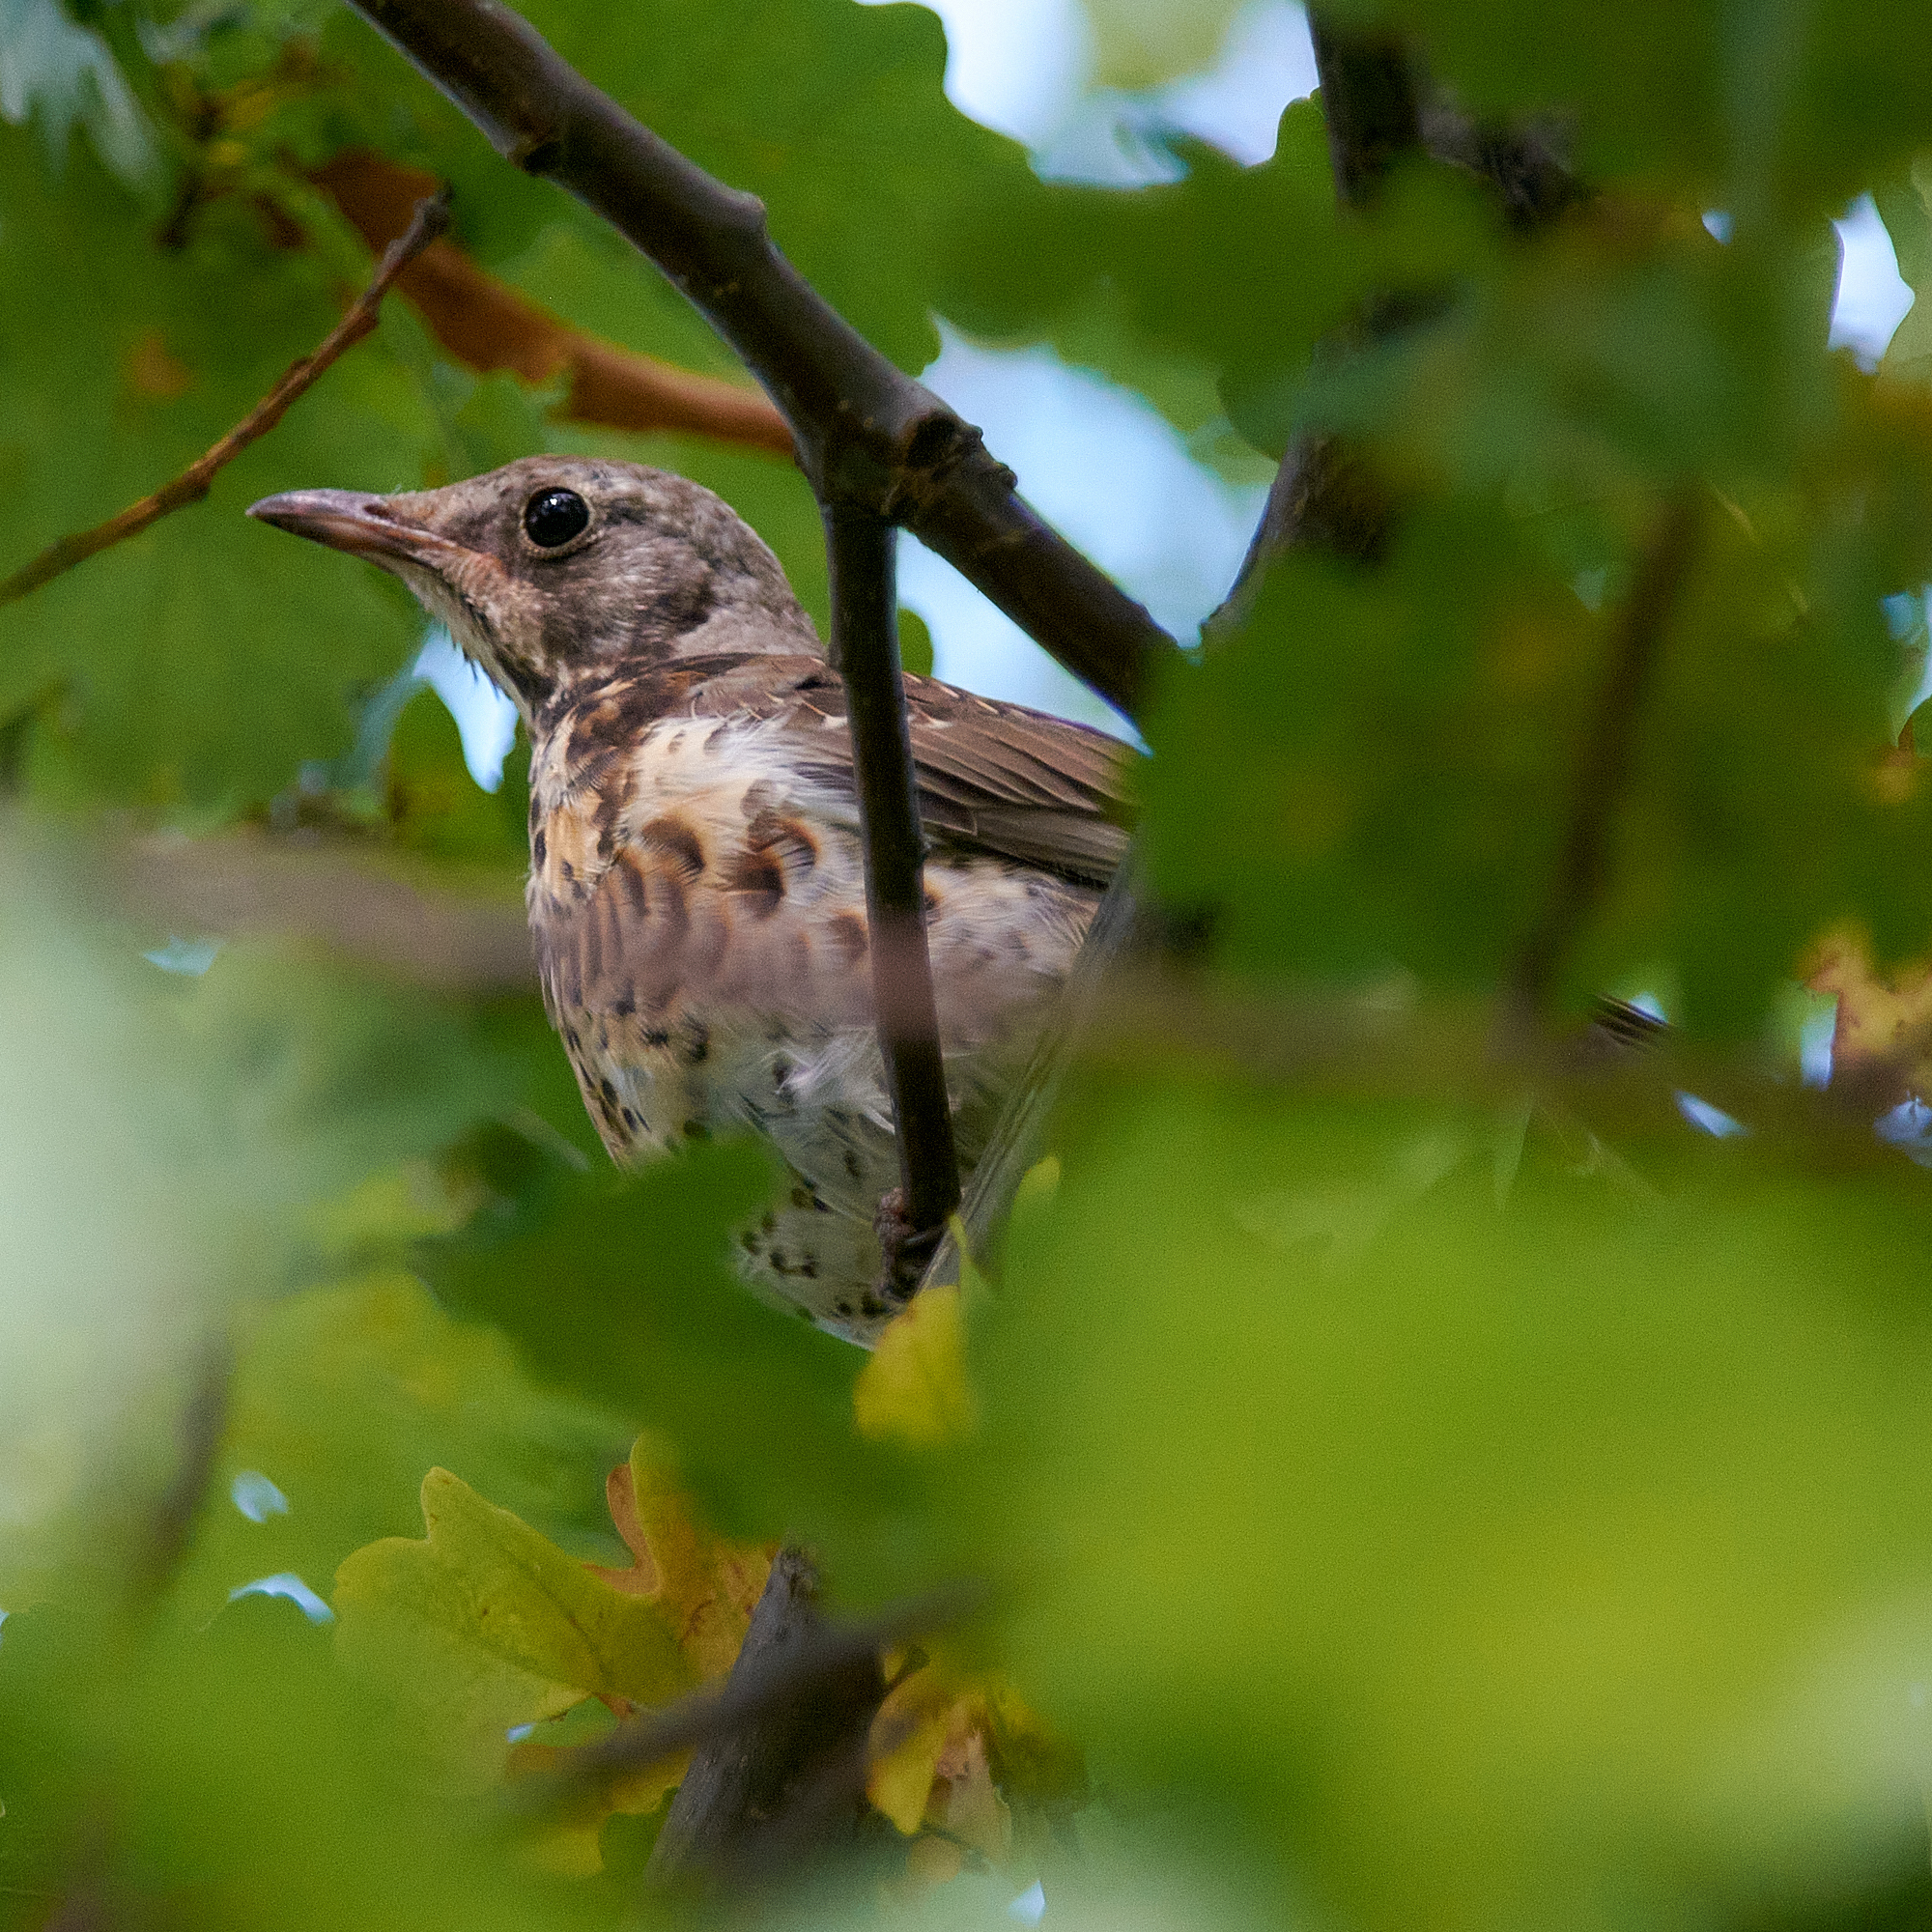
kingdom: Animalia
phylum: Chordata
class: Aves
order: Passeriformes
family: Turdidae
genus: Turdus
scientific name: Turdus pilaris
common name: Fieldfare
